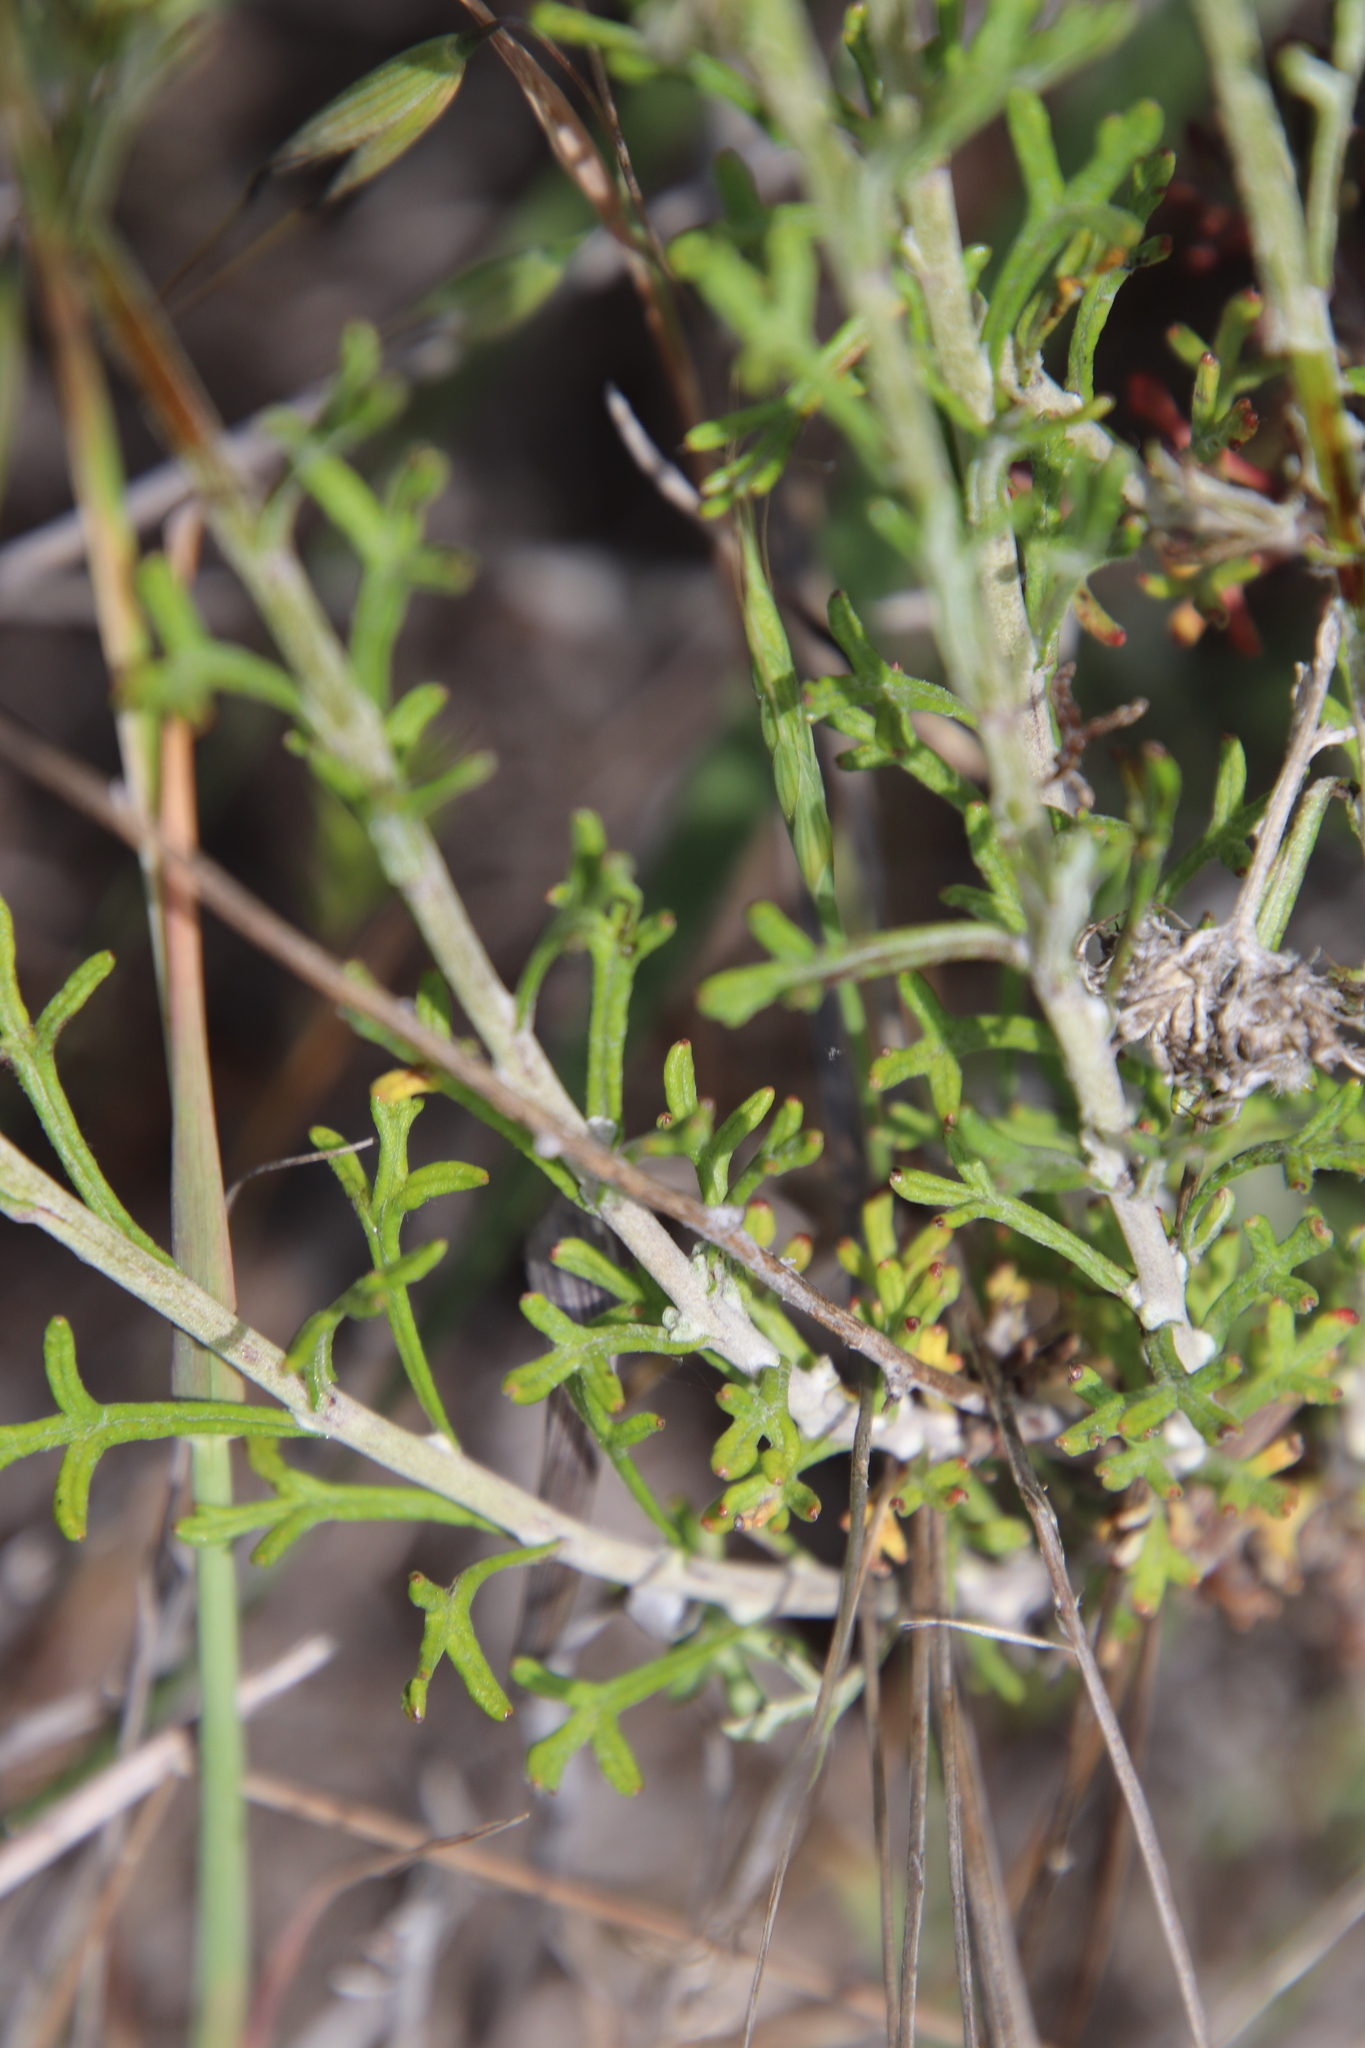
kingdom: Plantae
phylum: Tracheophyta
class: Magnoliopsida
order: Asterales
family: Asteraceae
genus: Eriophyllum
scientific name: Eriophyllum confertiflorum
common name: Golden-yarrow
